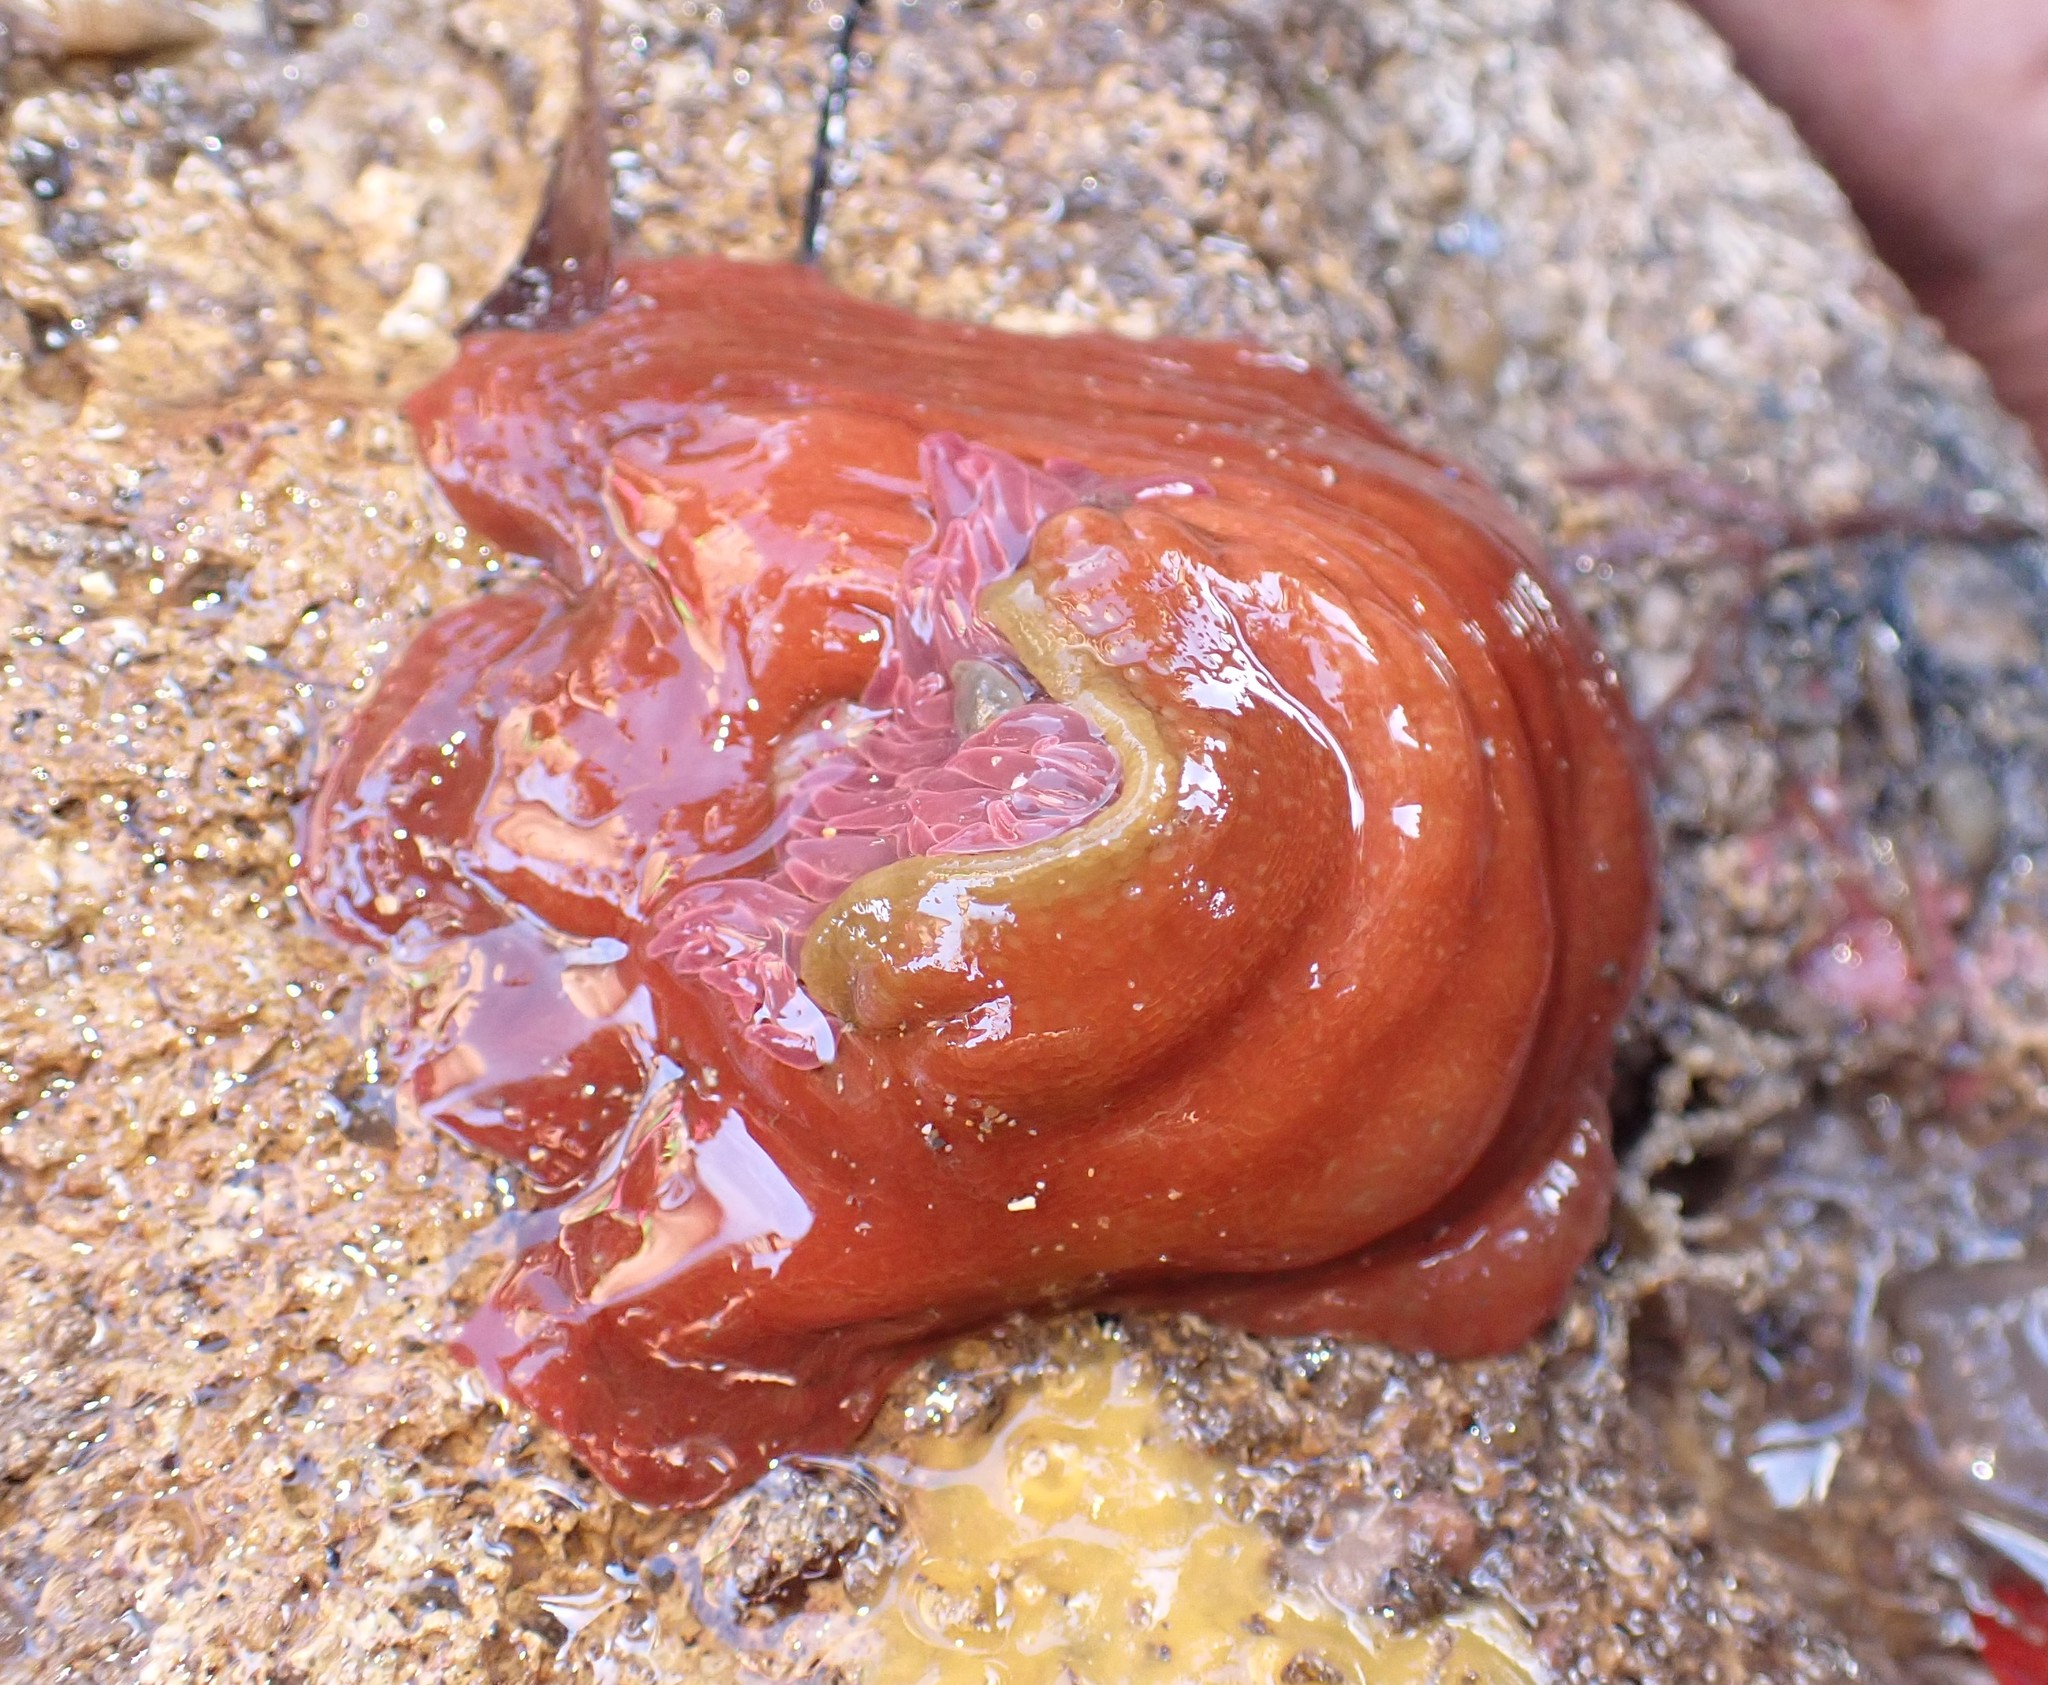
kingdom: Animalia
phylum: Cnidaria
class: Anthozoa
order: Actiniaria
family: Actiniidae
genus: Isanemonia
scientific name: Isanemonia australis
